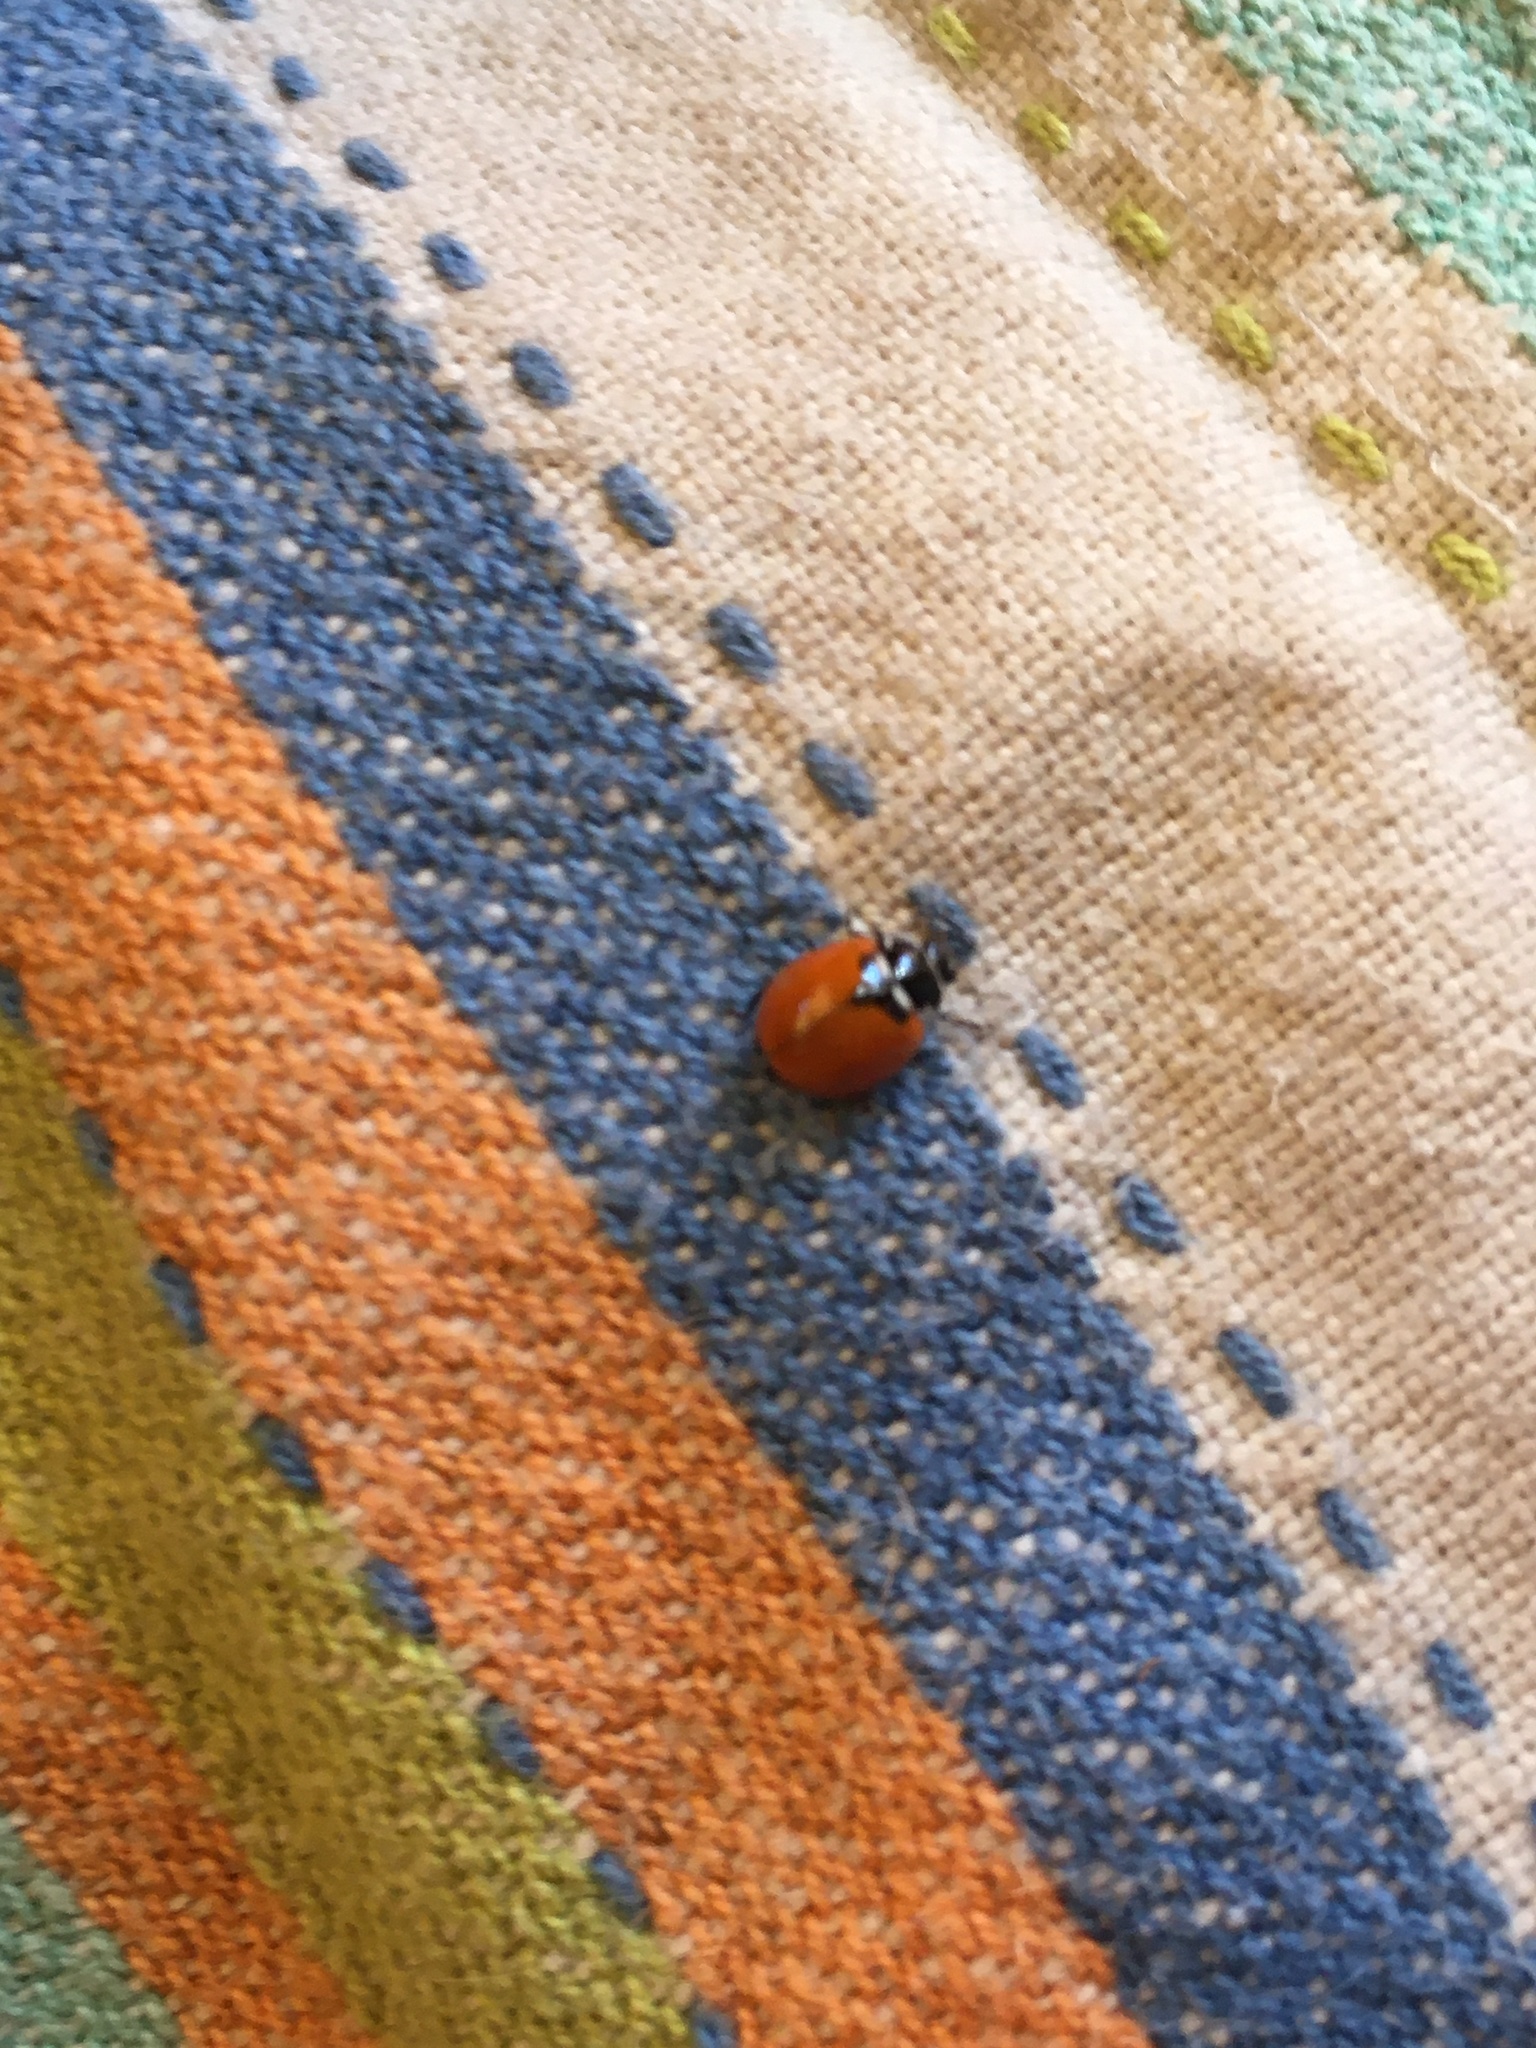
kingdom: Animalia
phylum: Arthropoda
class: Insecta
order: Coleoptera
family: Coccinellidae
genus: Adalia
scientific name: Adalia deficiens
